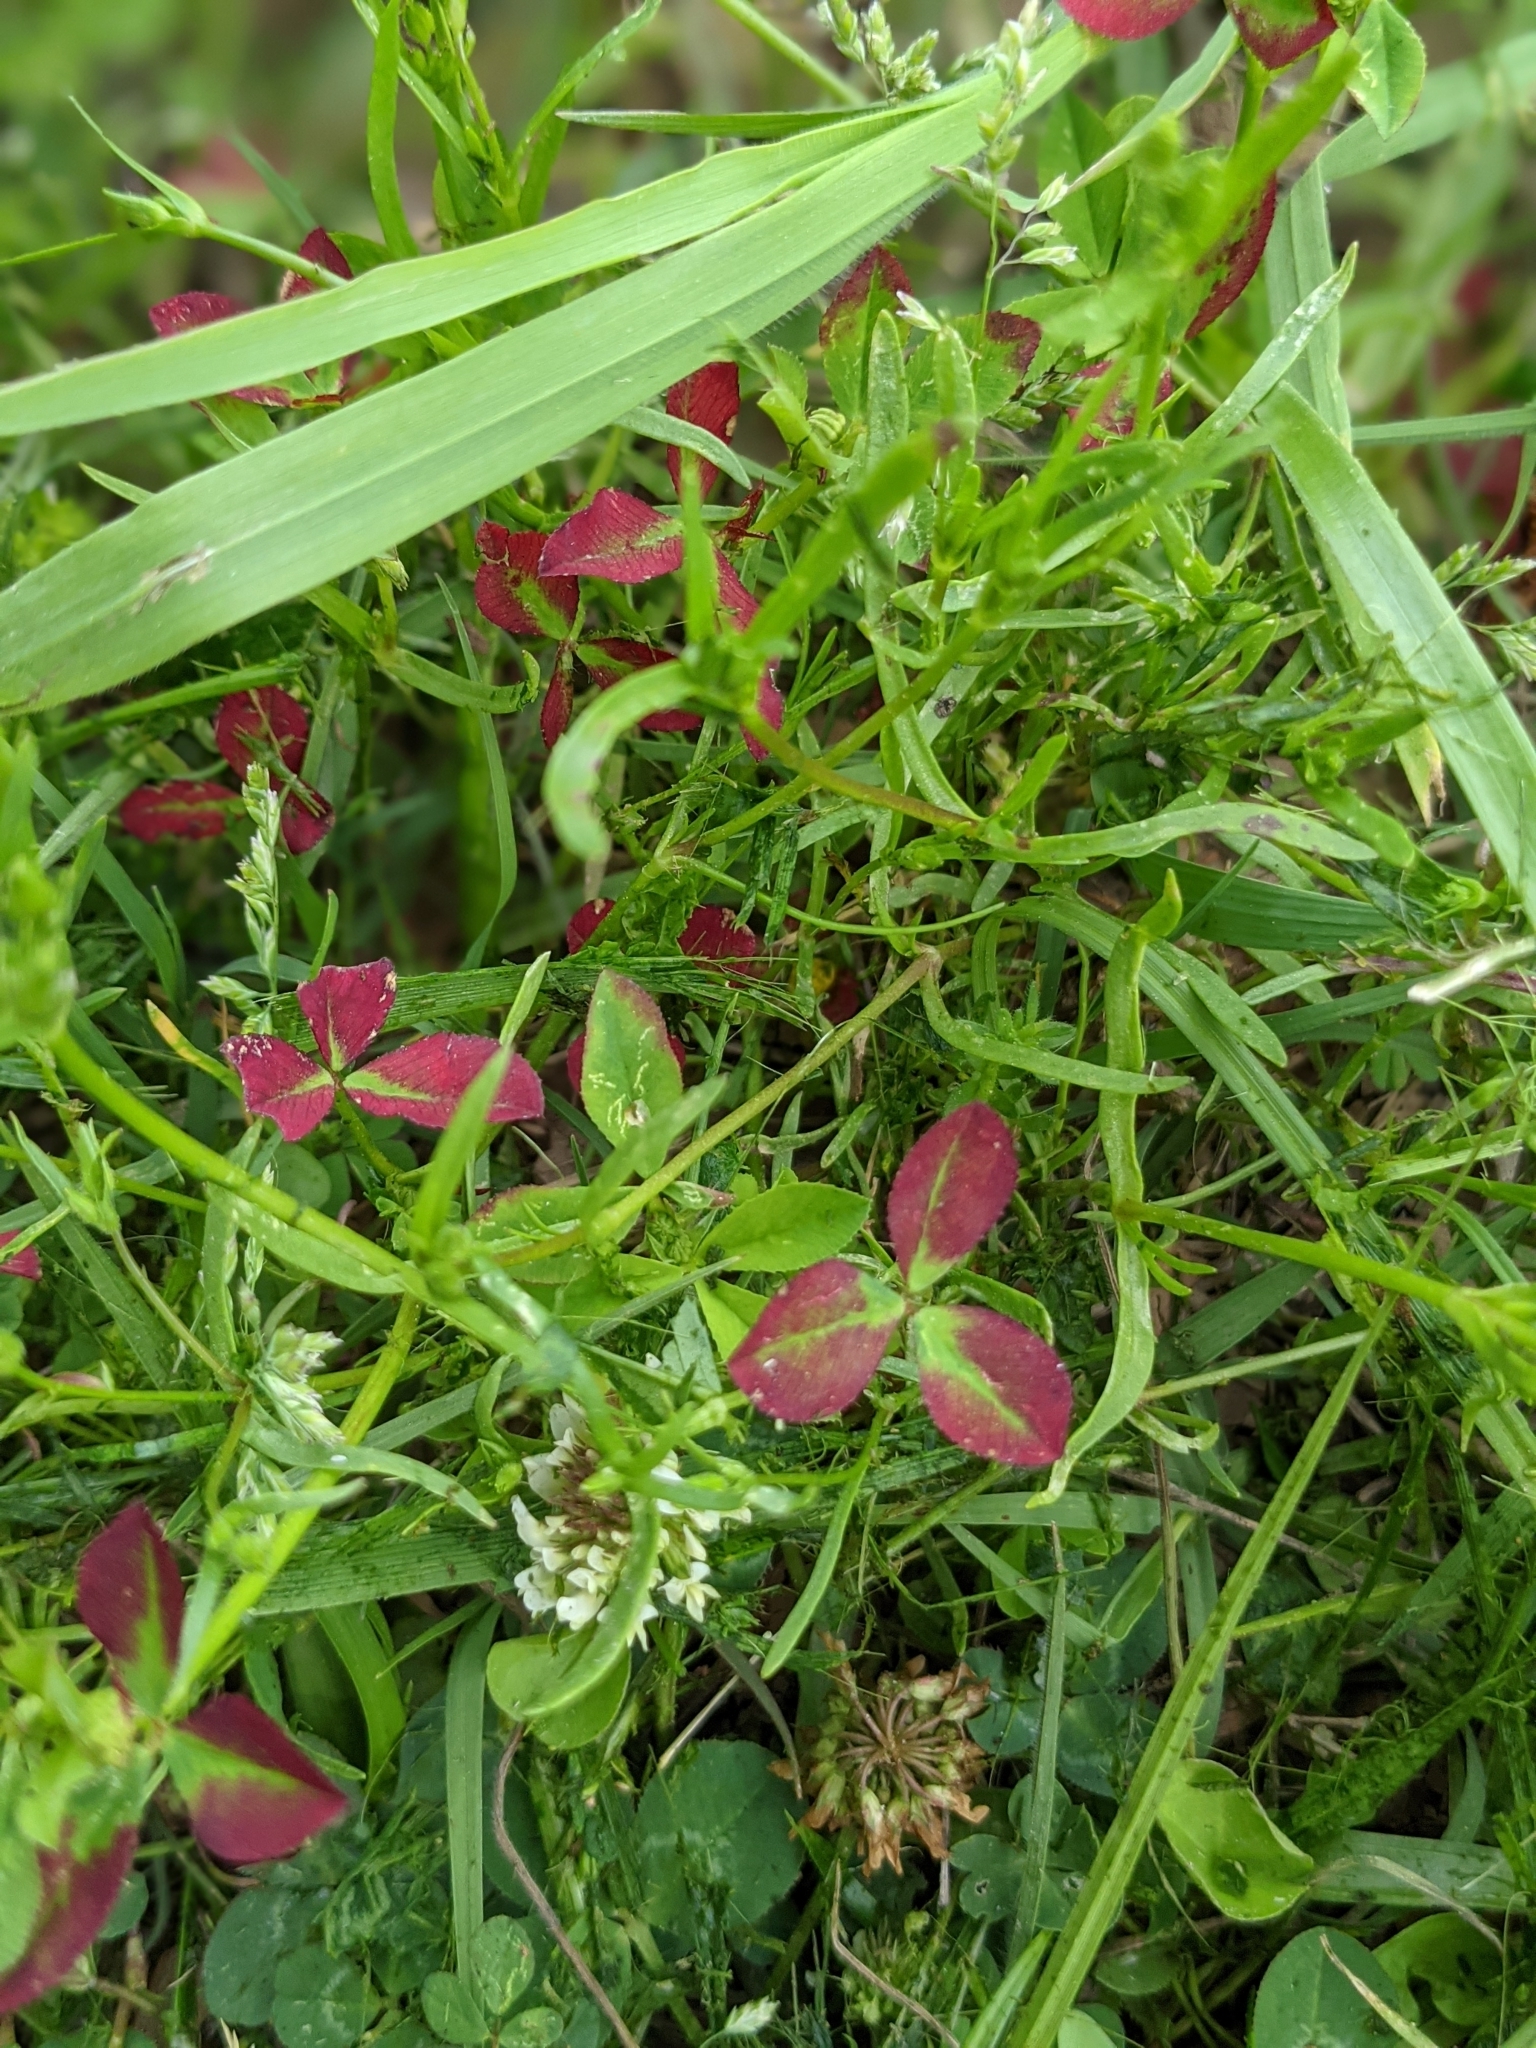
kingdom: Plantae
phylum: Tracheophyta
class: Magnoliopsida
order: Fabales
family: Fabaceae
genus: Trifolium
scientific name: Trifolium repens
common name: White clover
